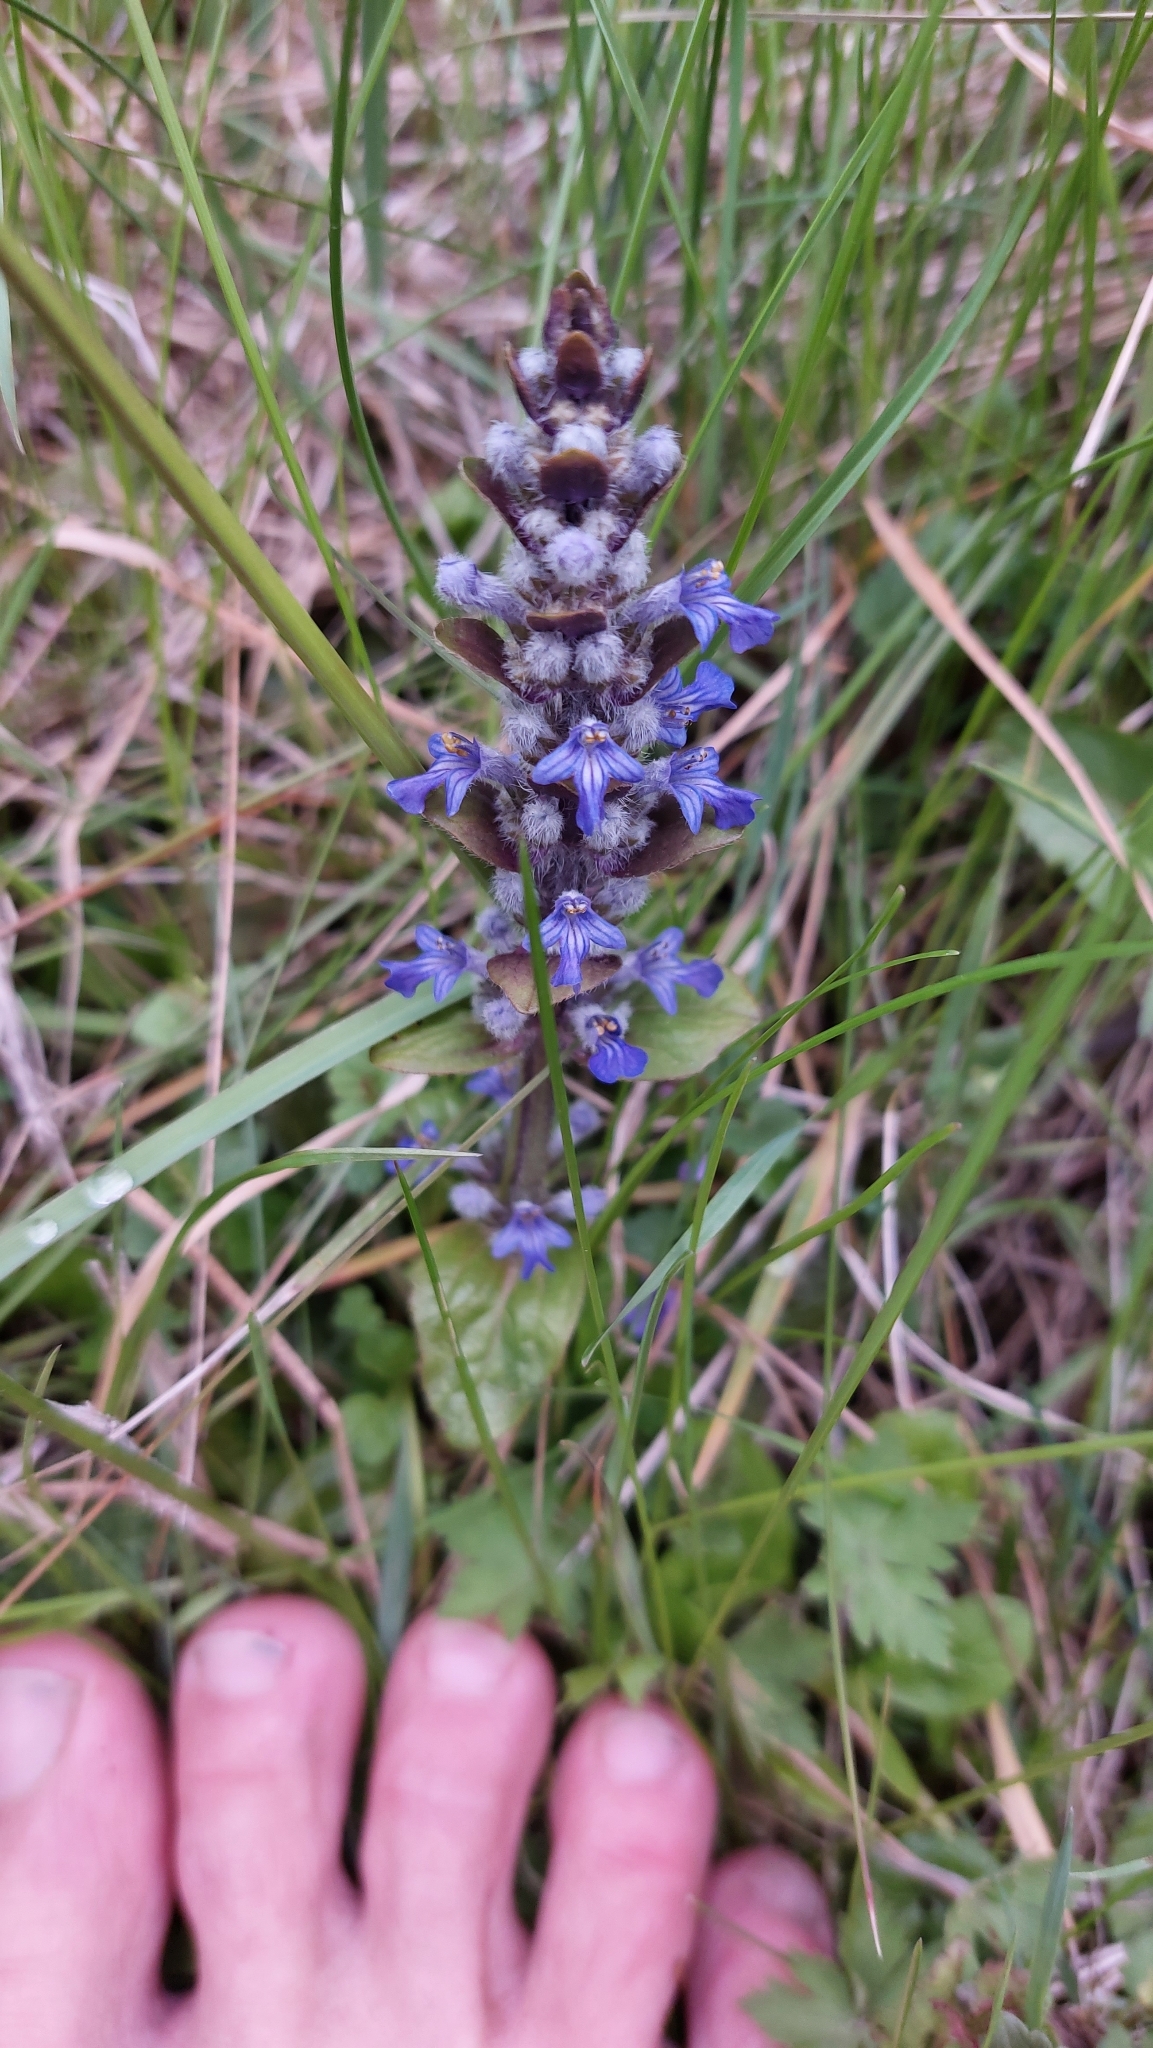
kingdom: Plantae
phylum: Tracheophyta
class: Magnoliopsida
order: Lamiales
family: Lamiaceae
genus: Ajuga
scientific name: Ajuga reptans
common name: Bugle
